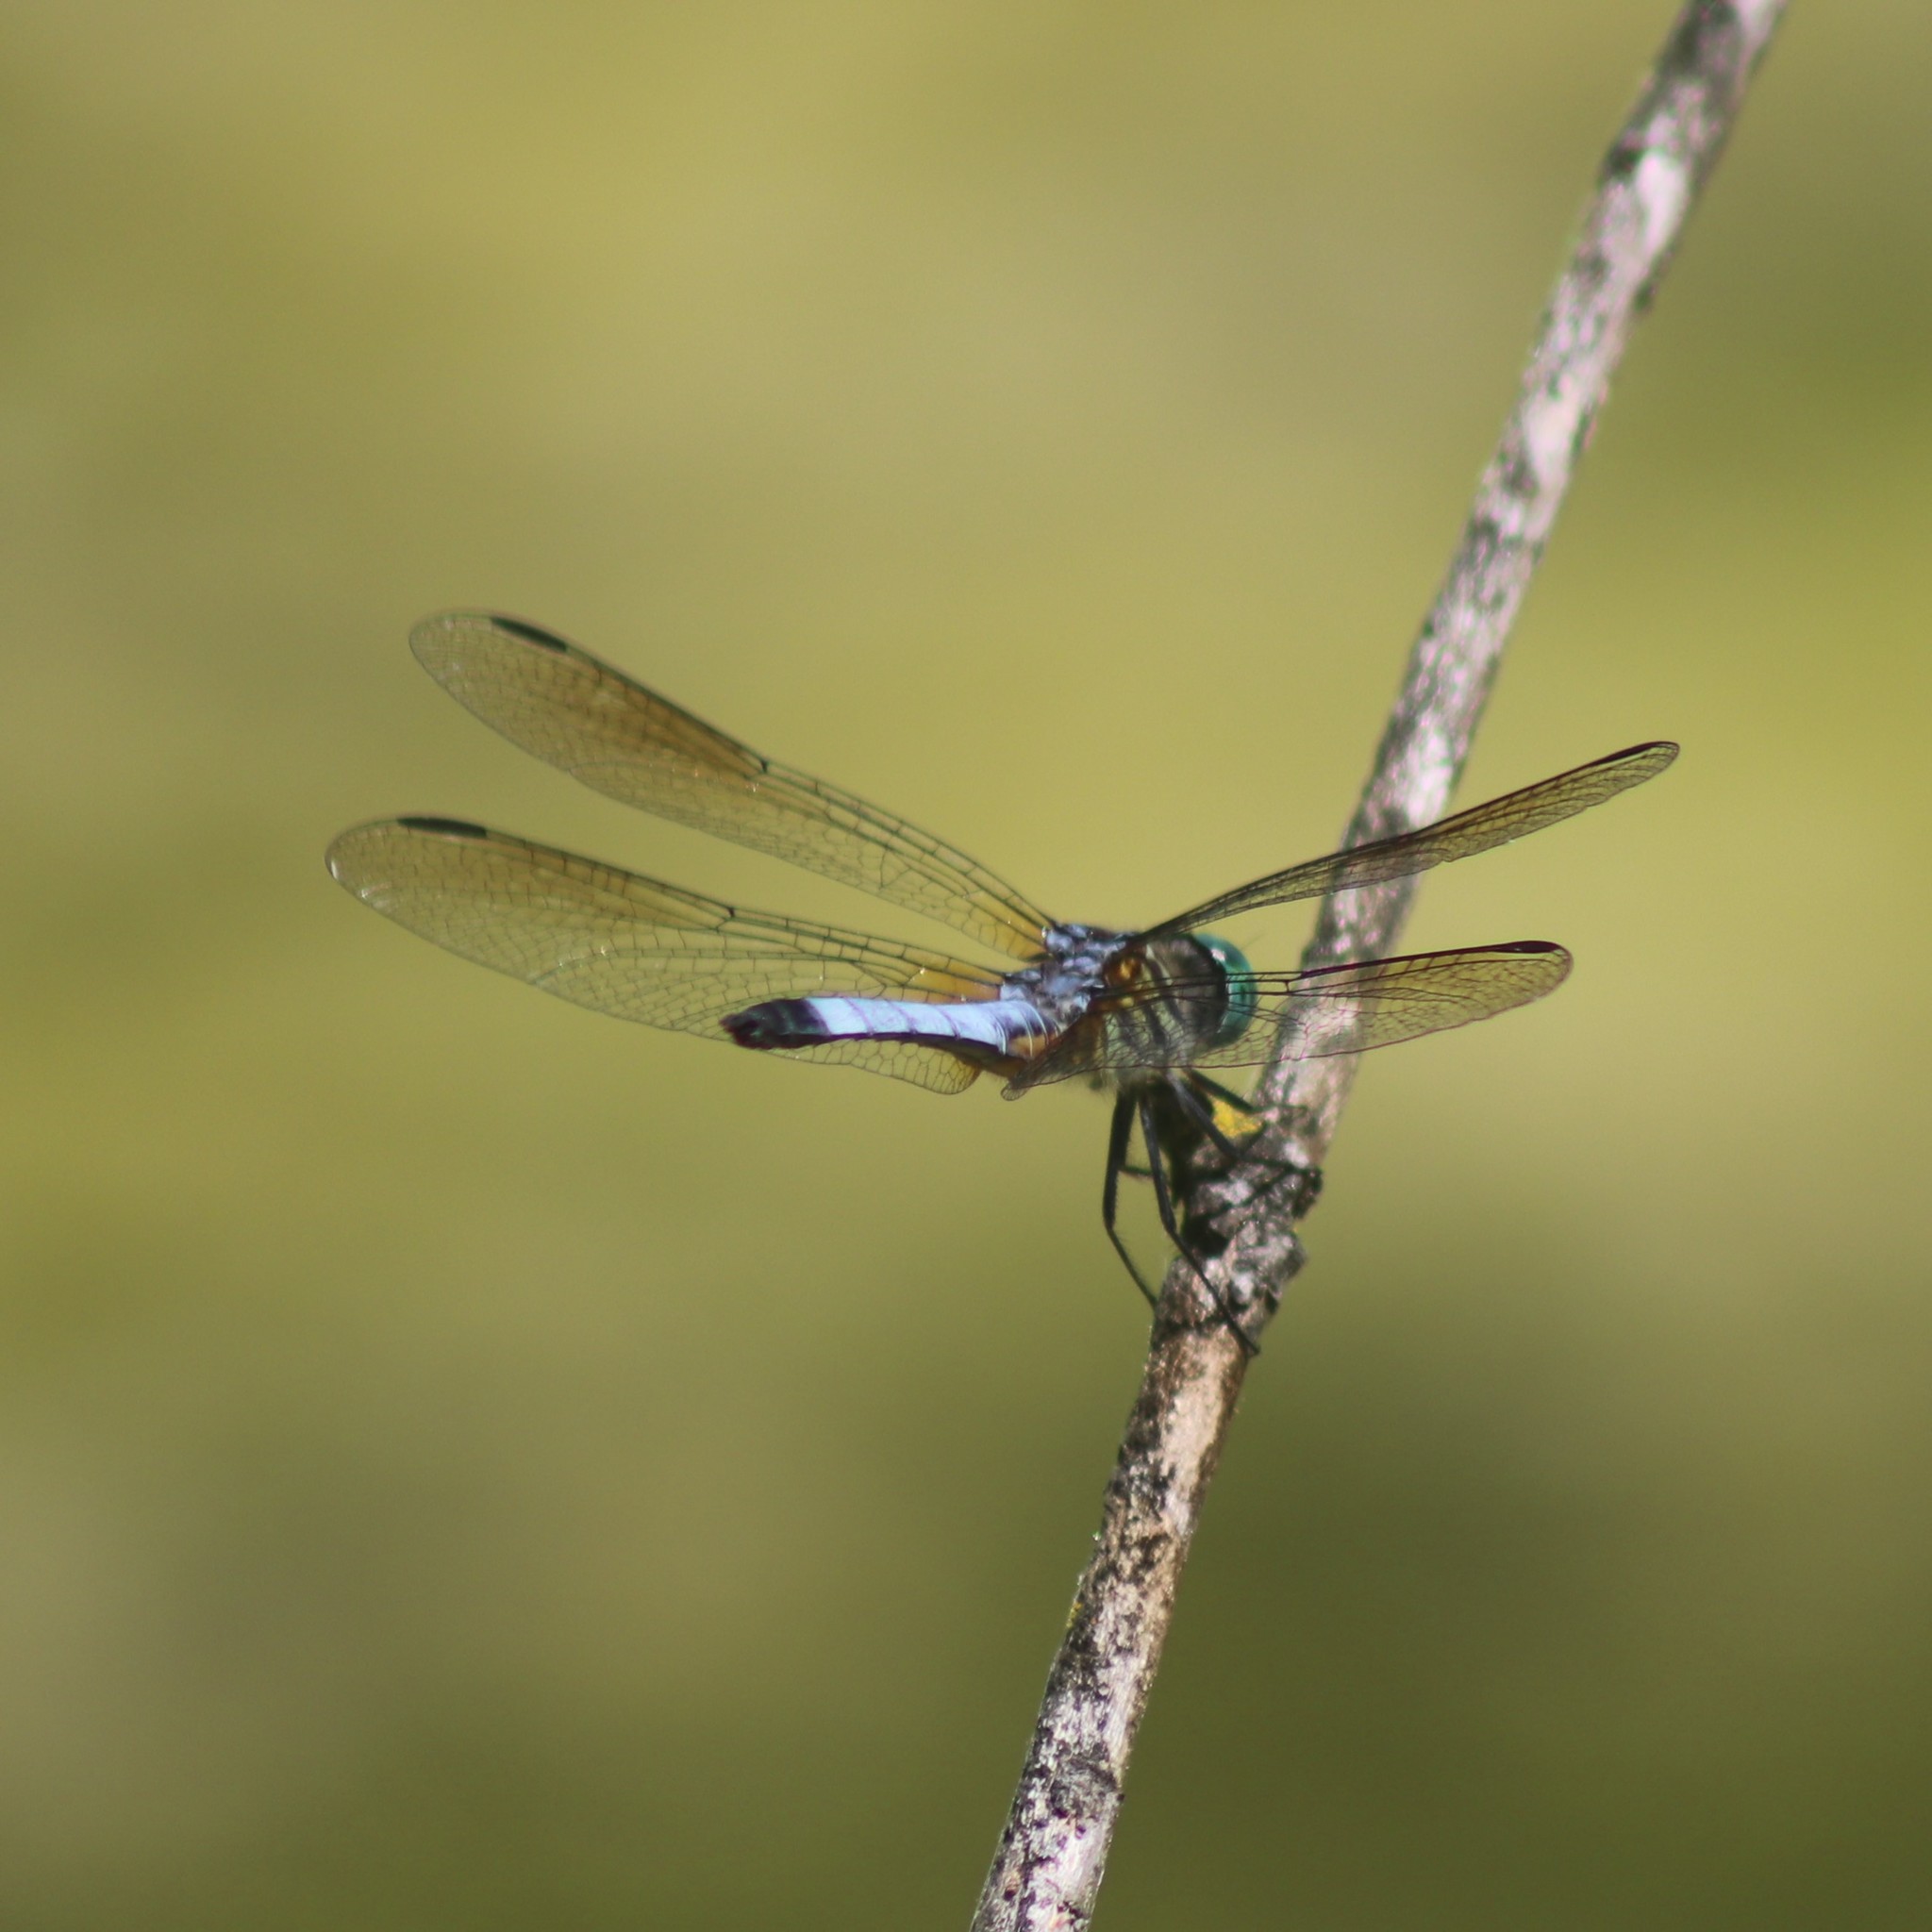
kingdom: Animalia
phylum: Arthropoda
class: Insecta
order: Odonata
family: Libellulidae
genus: Pachydiplax
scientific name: Pachydiplax longipennis
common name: Blue dasher
